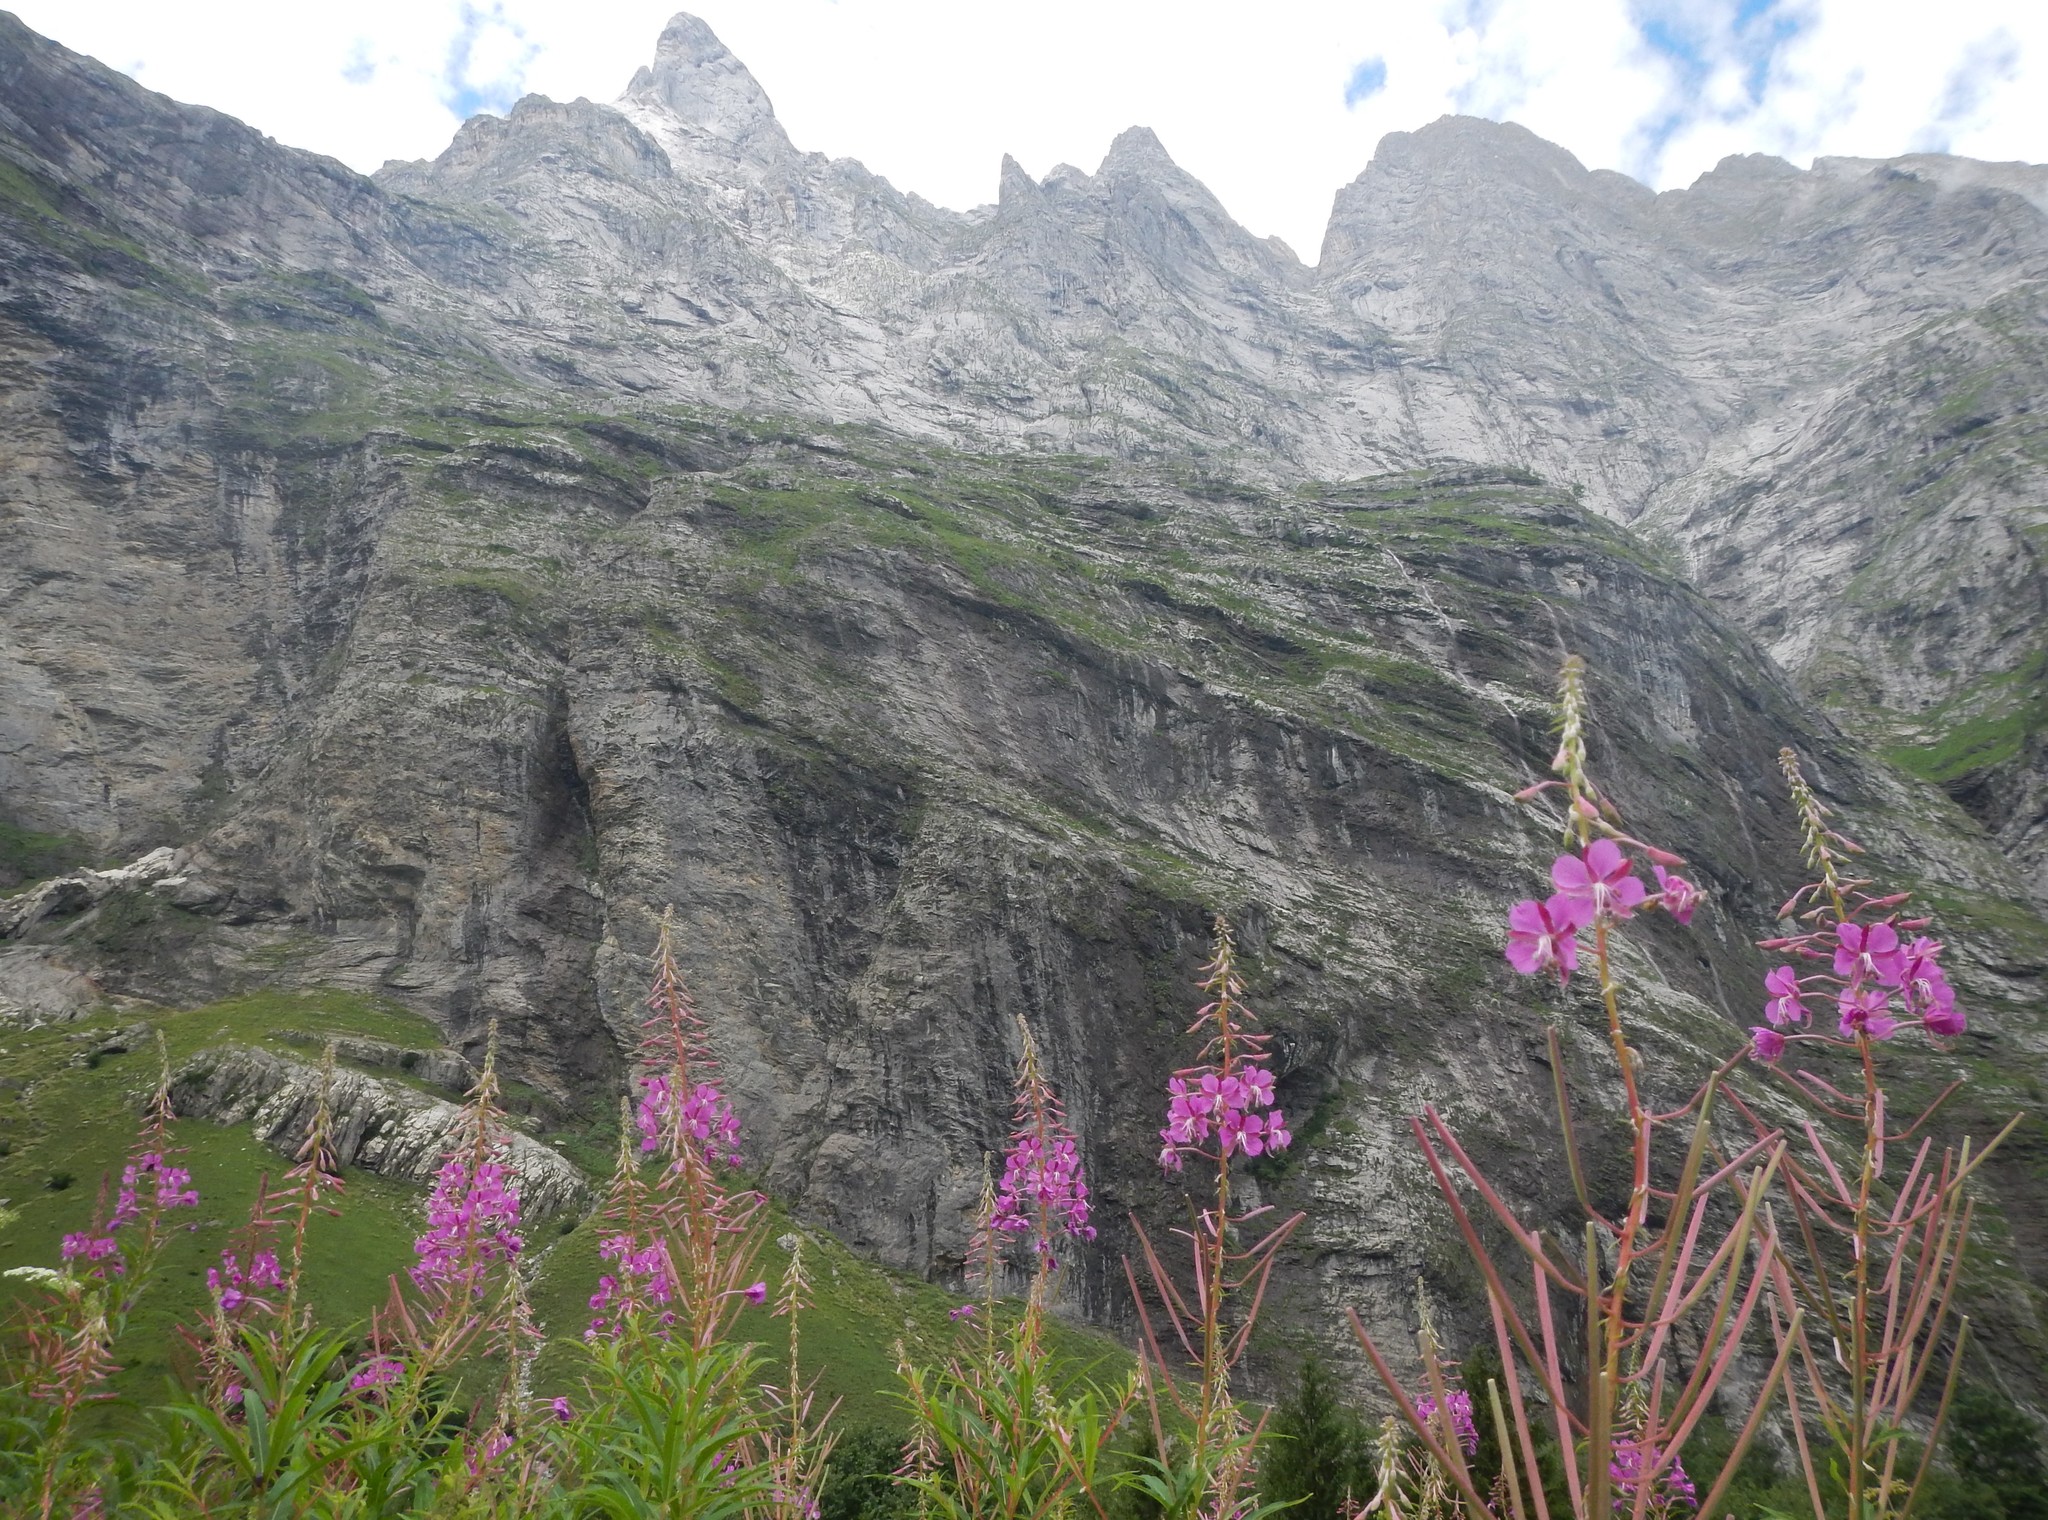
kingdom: Plantae
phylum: Tracheophyta
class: Magnoliopsida
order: Myrtales
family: Onagraceae
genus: Chamaenerion
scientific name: Chamaenerion angustifolium
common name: Fireweed
